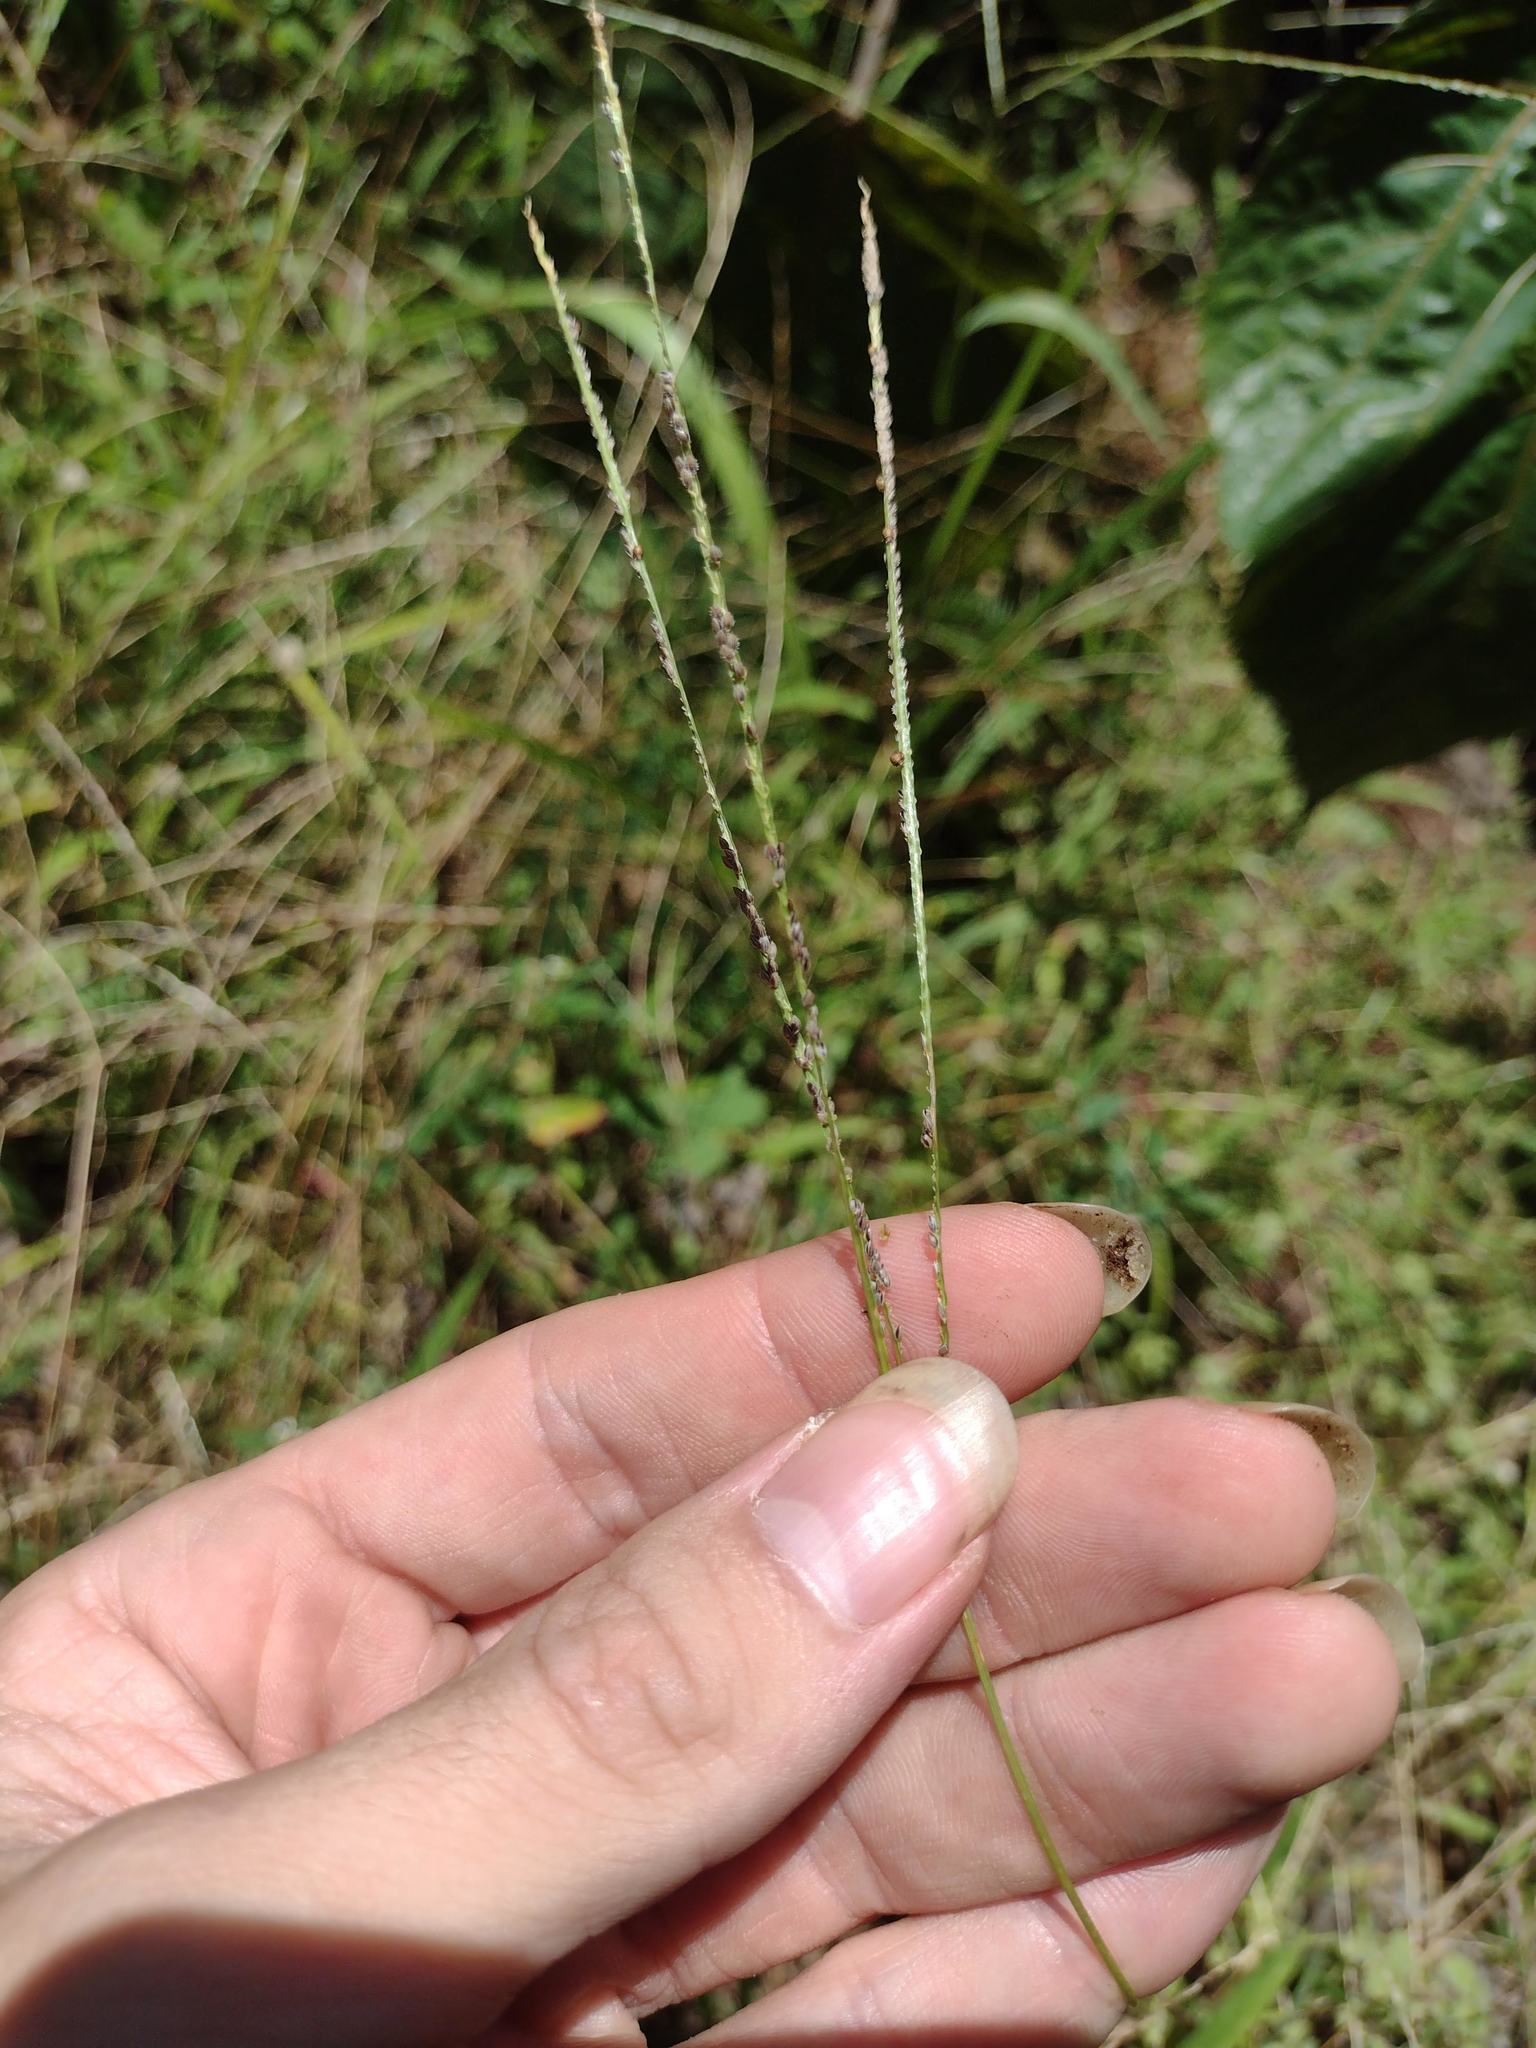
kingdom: Plantae
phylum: Tracheophyta
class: Liliopsida
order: Poales
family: Poaceae
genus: Digitaria
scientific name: Digitaria violascens
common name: Violet crabgrass
